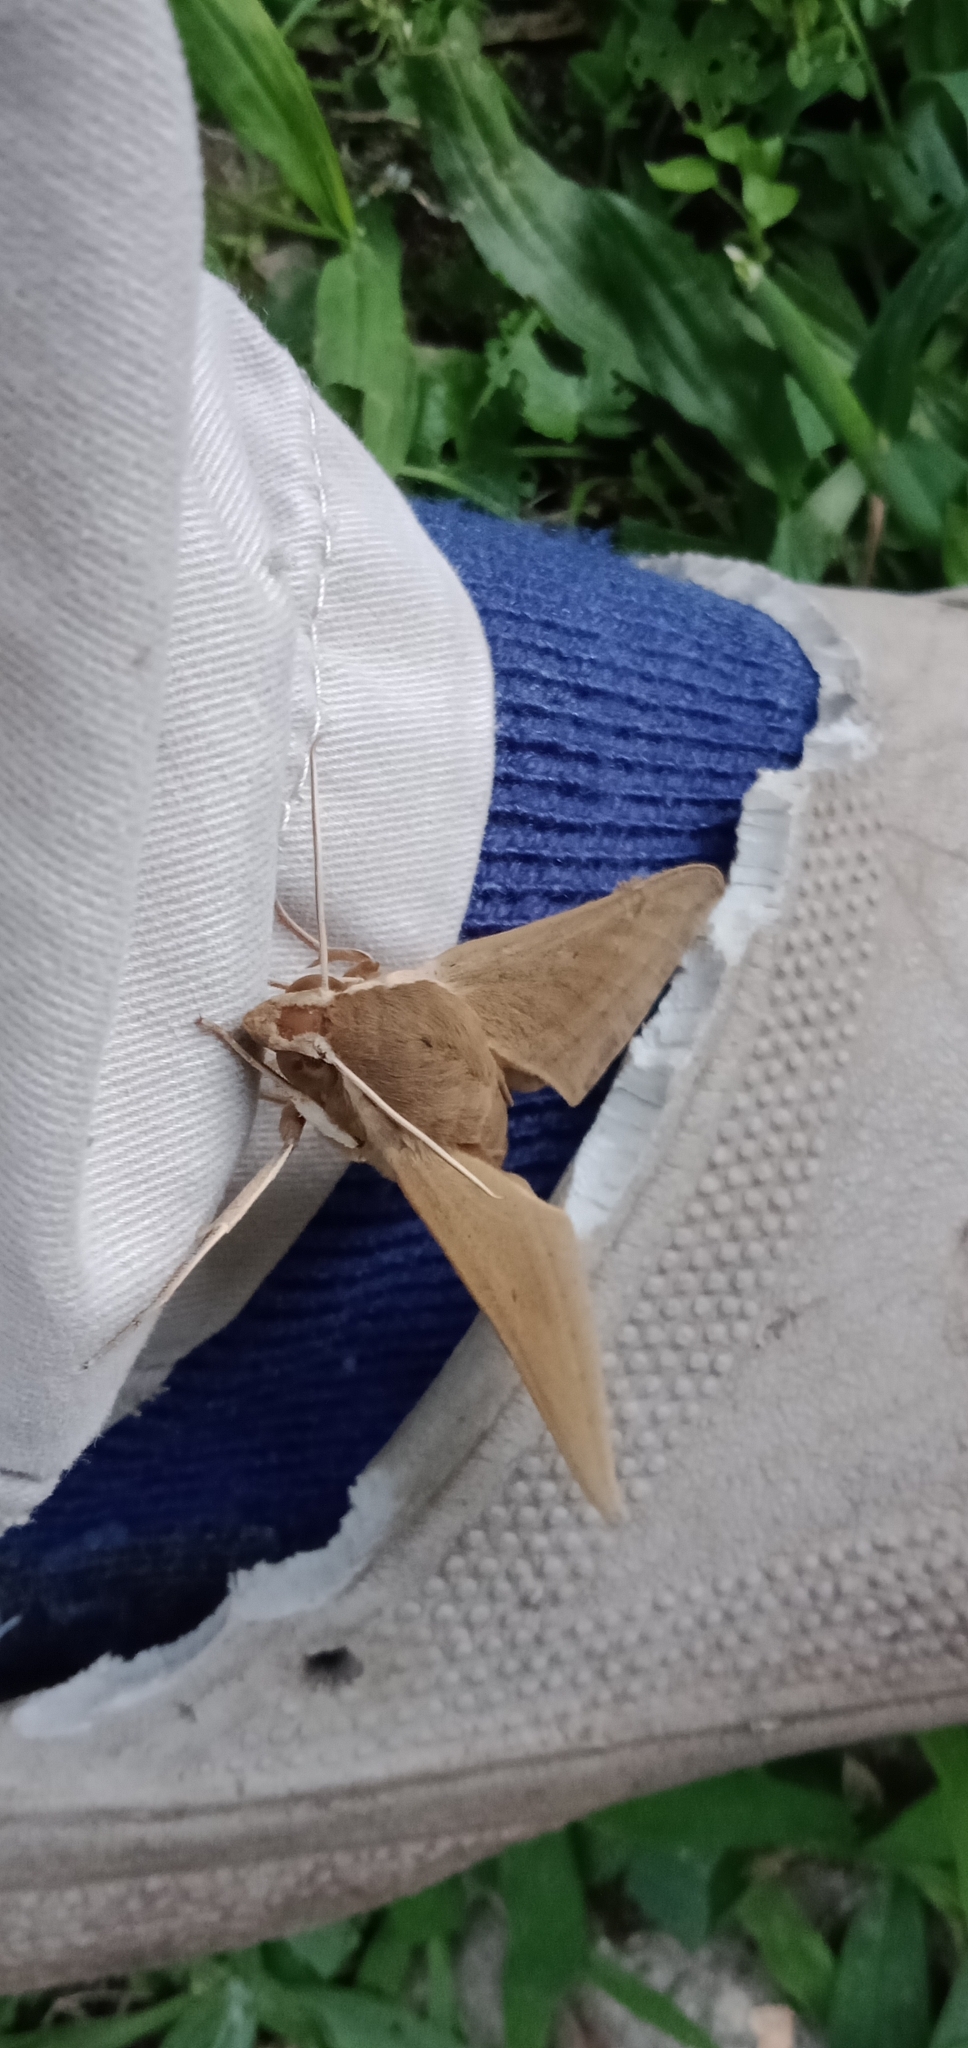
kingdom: Animalia
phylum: Arthropoda
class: Insecta
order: Lepidoptera
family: Sphingidae
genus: Theretra
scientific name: Theretra latreillii
